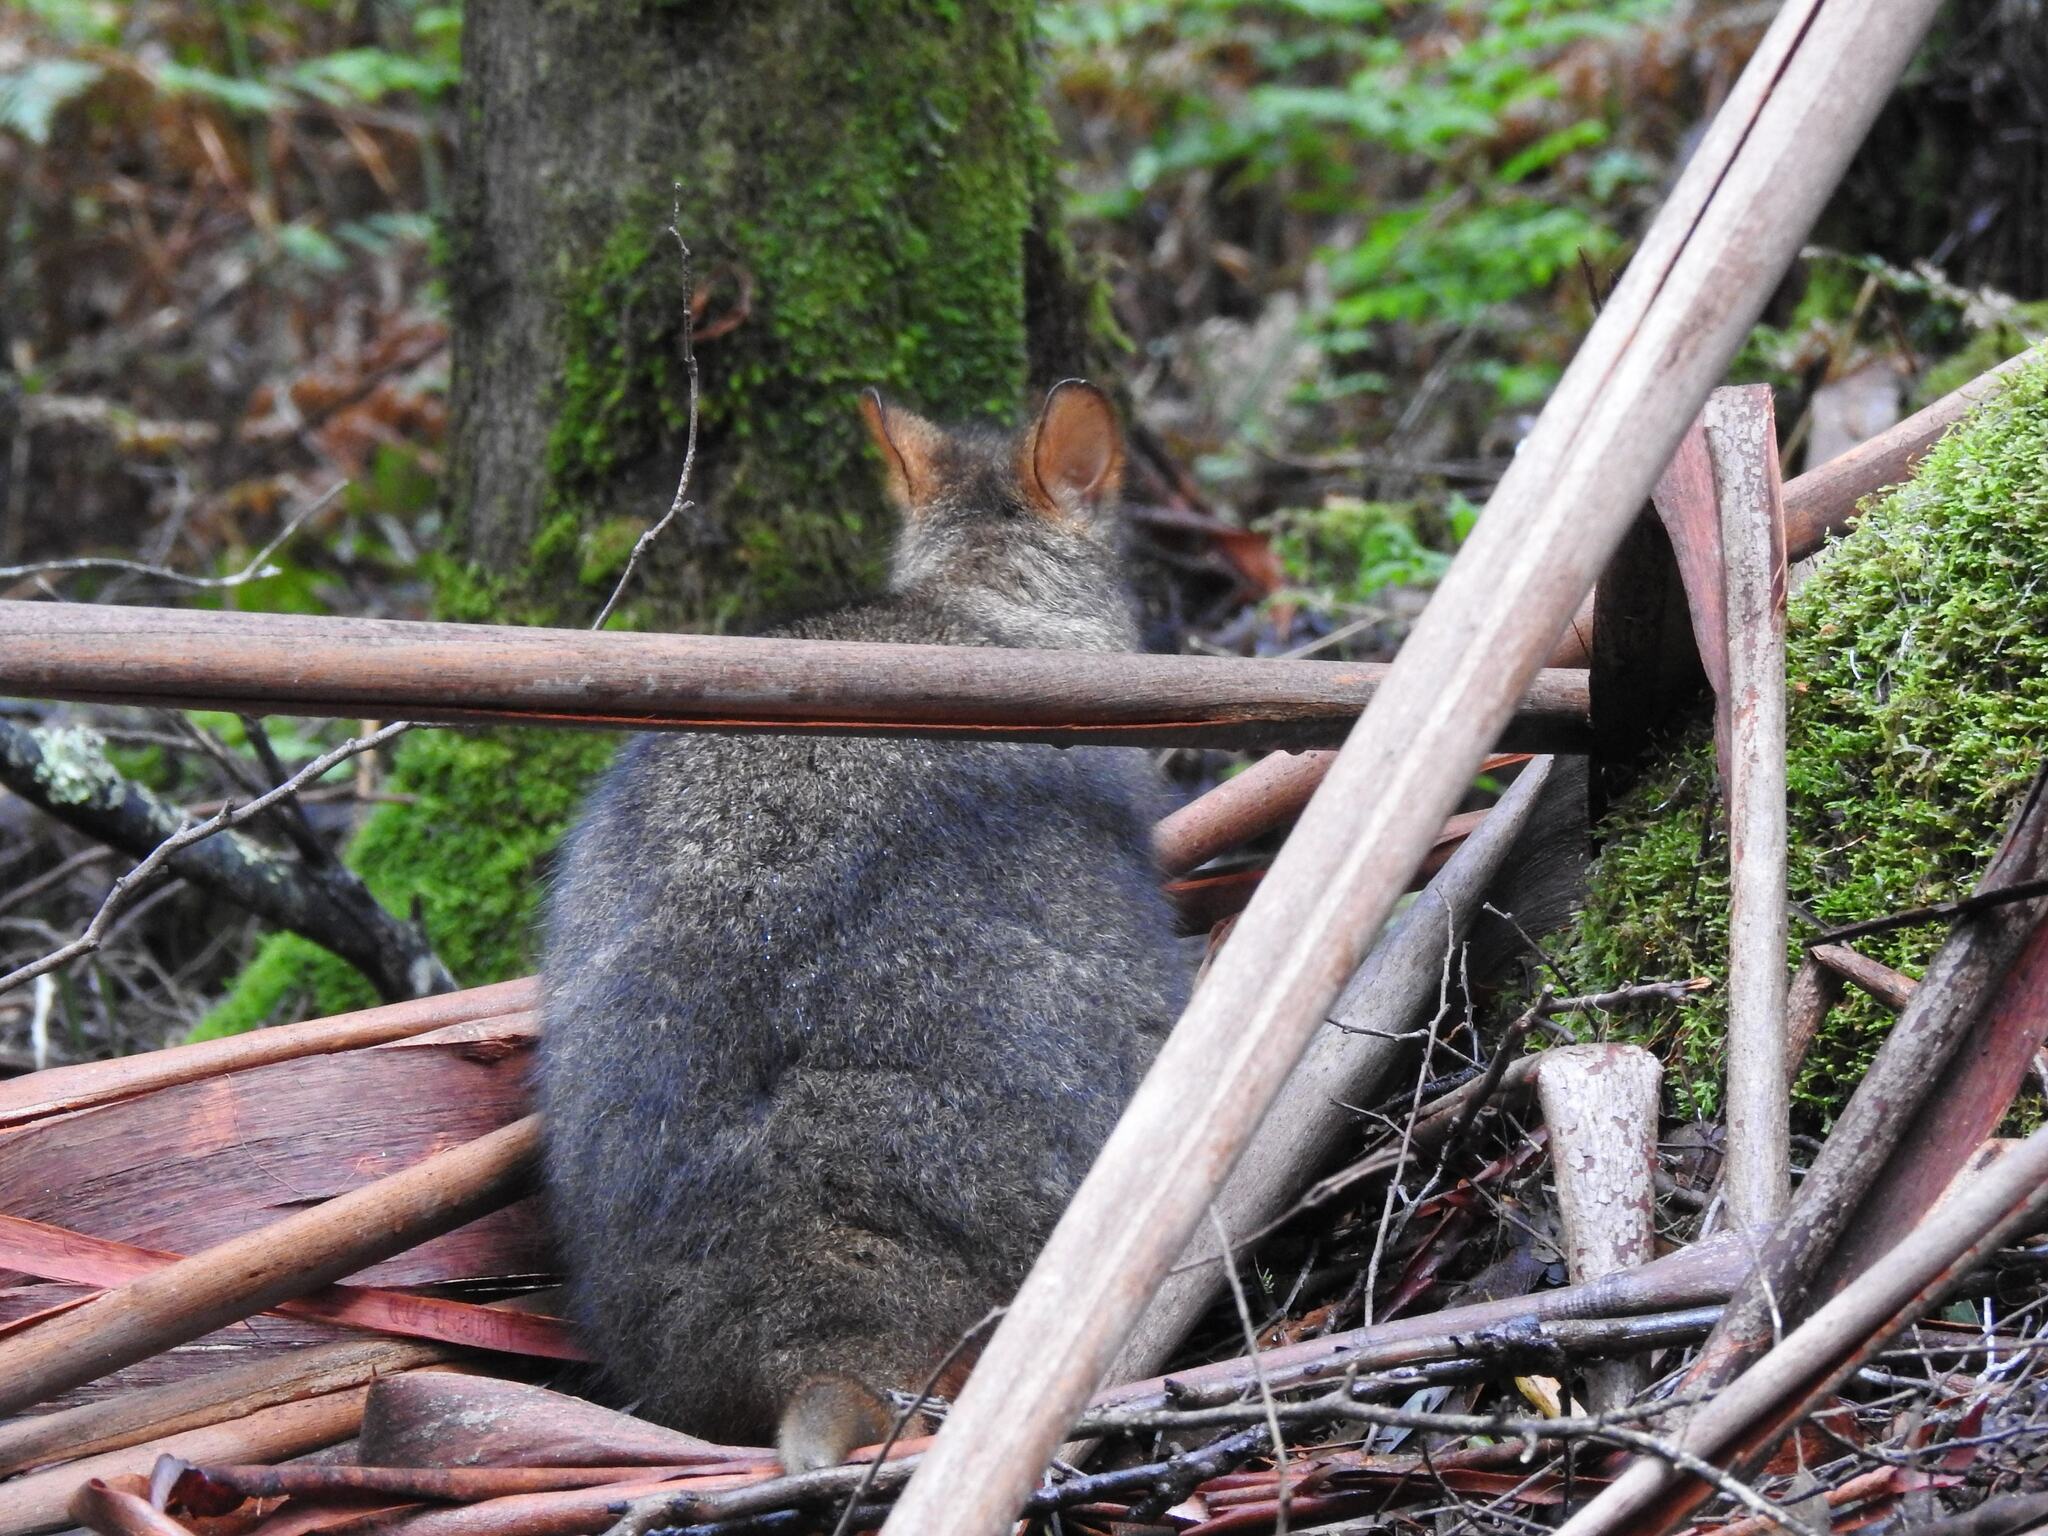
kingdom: Animalia
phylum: Chordata
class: Mammalia
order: Diprotodontia
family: Macropodidae
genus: Thylogale
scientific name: Thylogale billardierii
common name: Tasmanian pademelon
